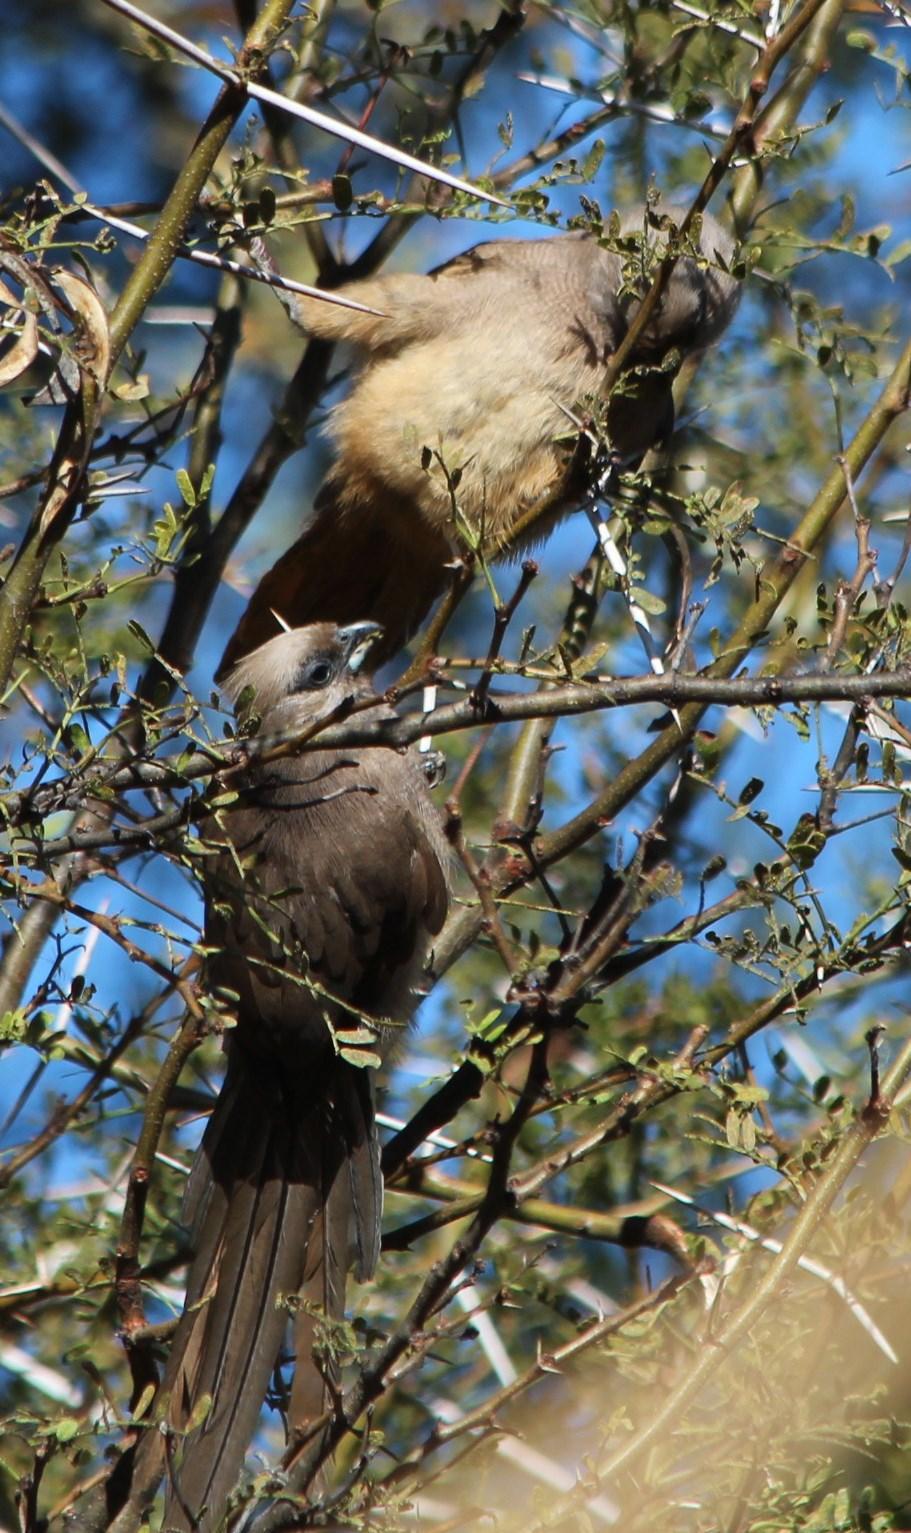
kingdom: Animalia
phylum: Chordata
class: Aves
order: Coliiformes
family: Coliidae
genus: Colius
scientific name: Colius striatus
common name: Speckled mousebird
